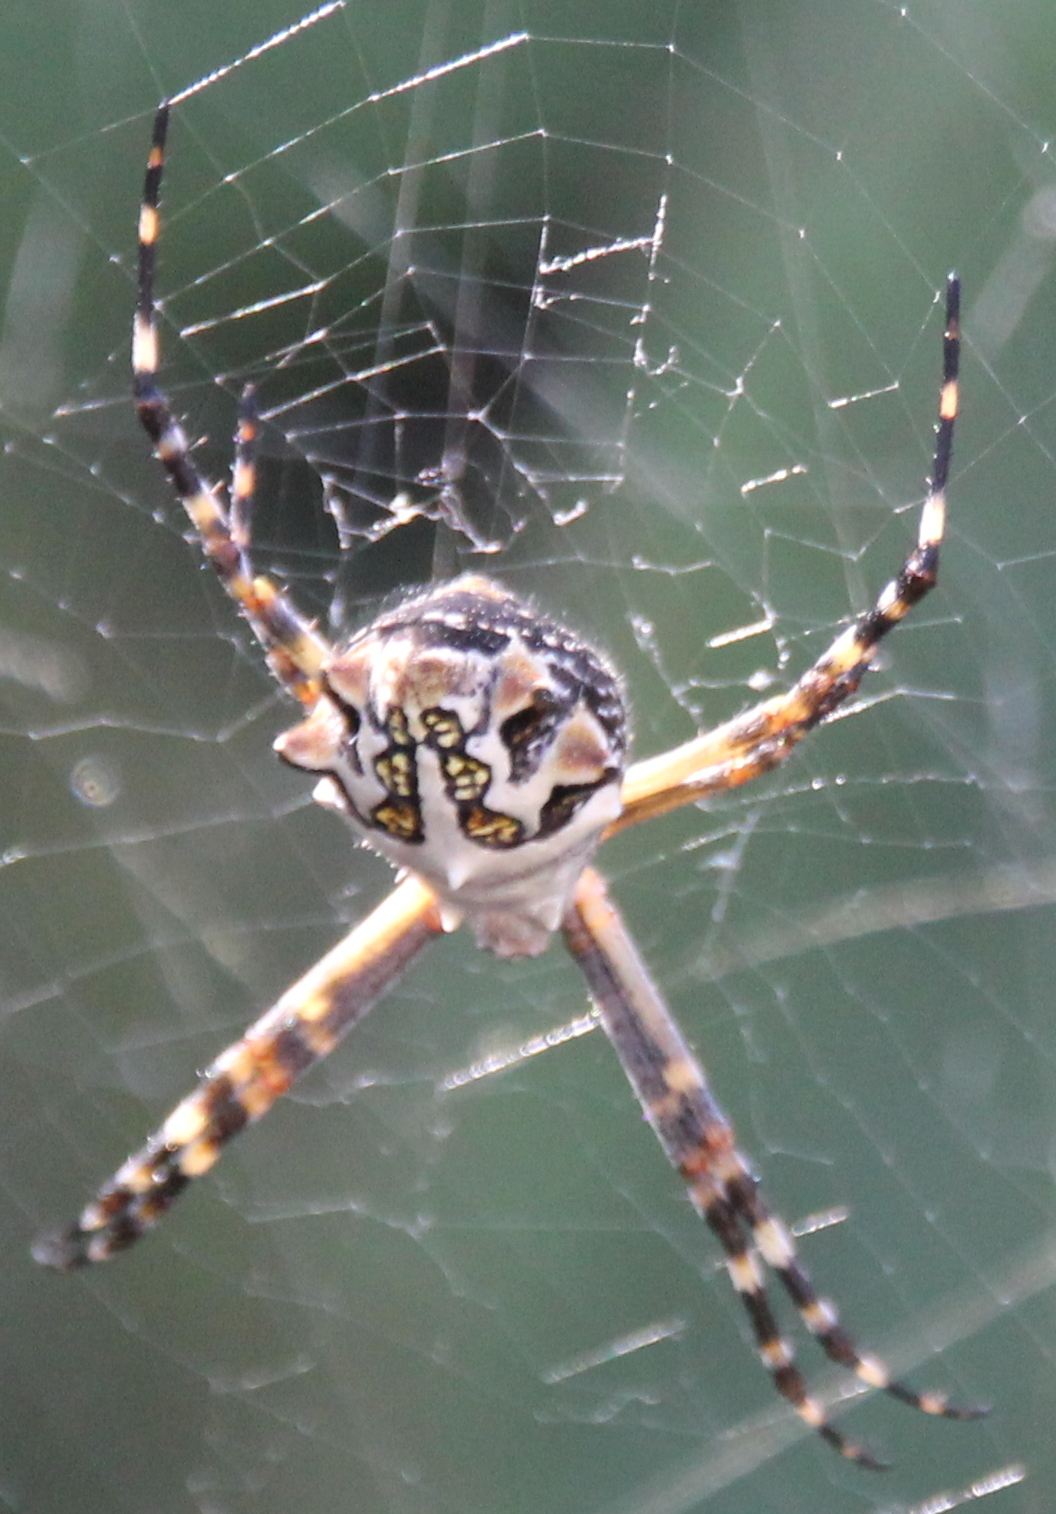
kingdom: Animalia
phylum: Arthropoda
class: Arachnida
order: Araneae
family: Araneidae
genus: Argiope
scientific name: Argiope argentata
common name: Orb weavers
